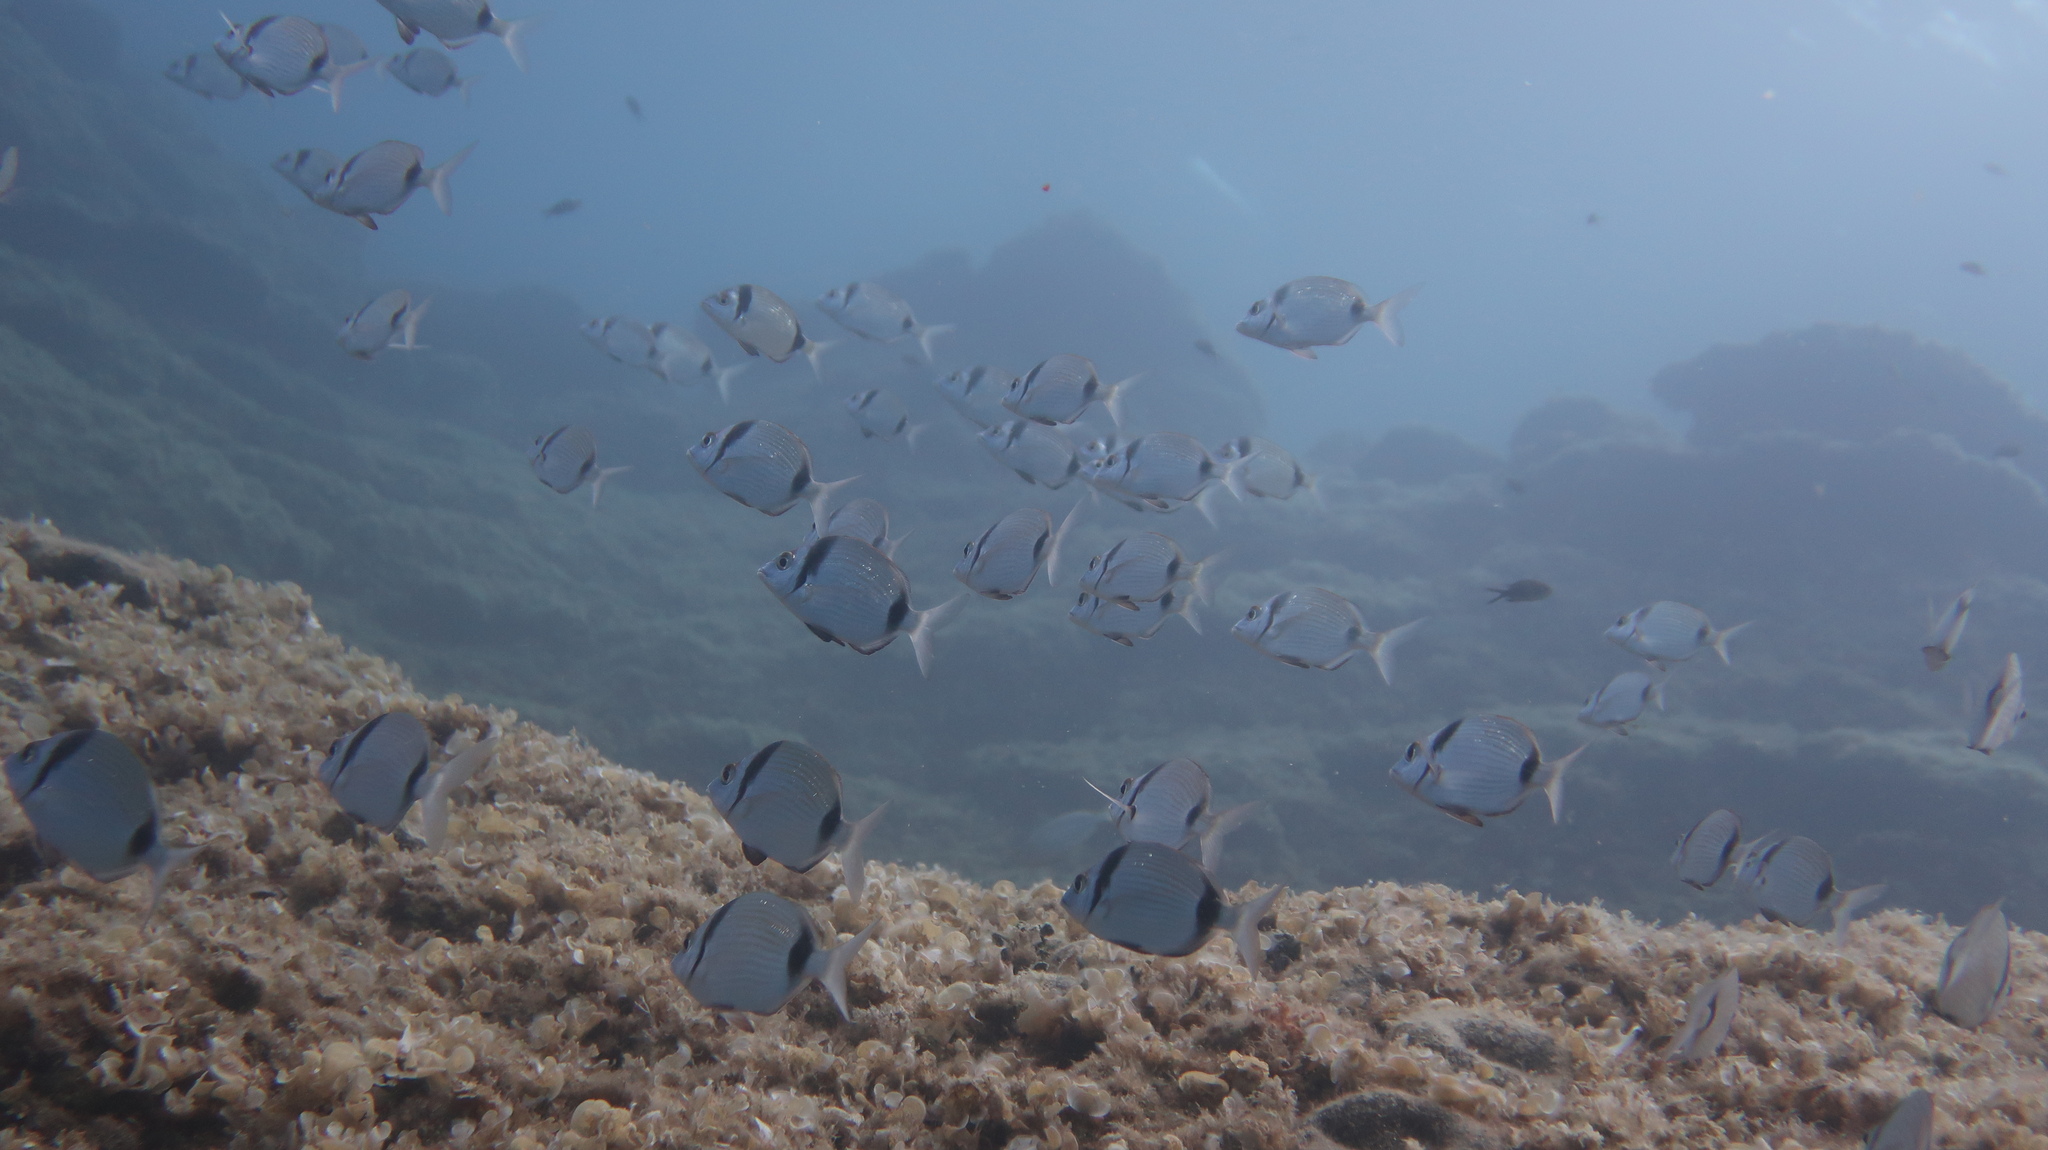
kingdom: Animalia
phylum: Chordata
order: Perciformes
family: Sparidae
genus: Diplodus
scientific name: Diplodus vulgaris
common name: Common two-banded seabream
